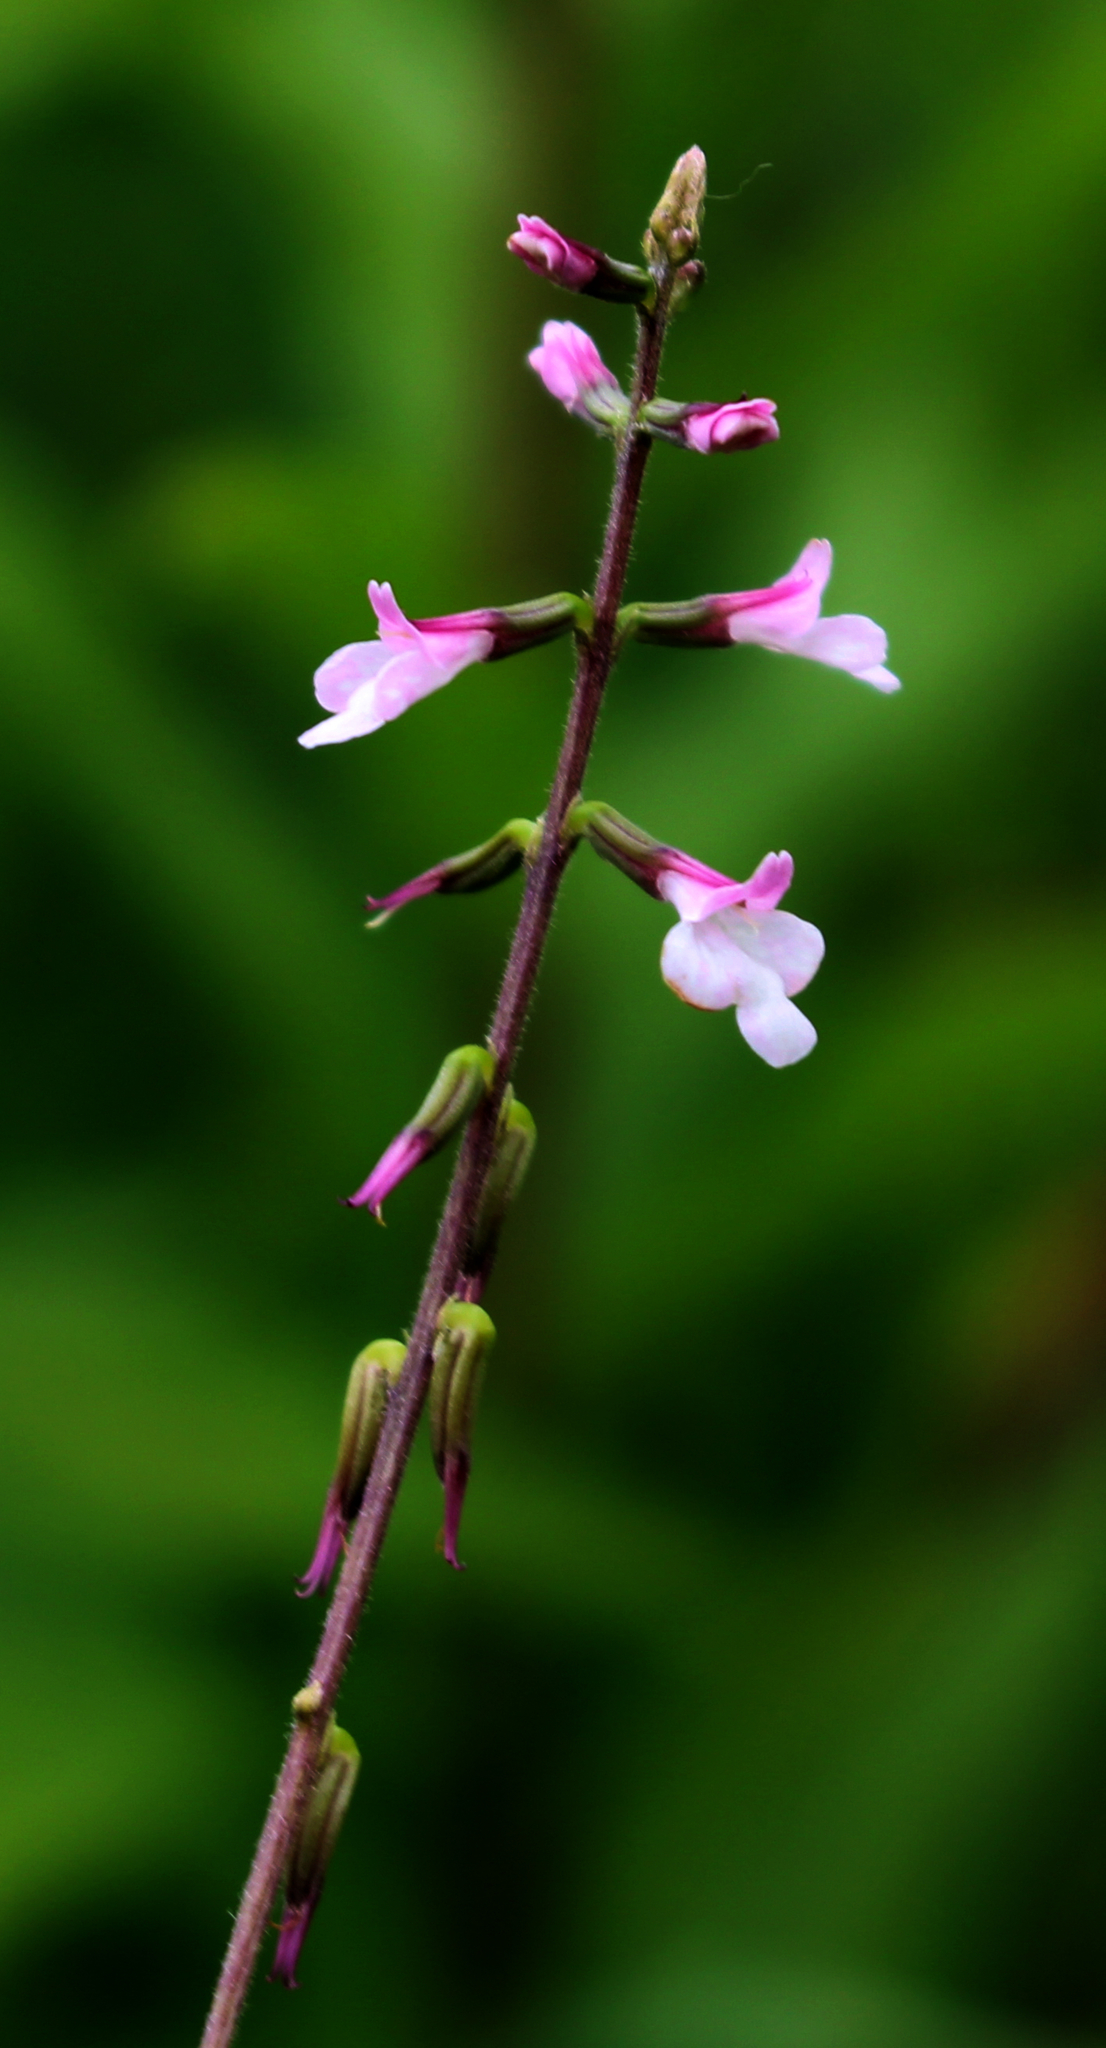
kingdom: Plantae
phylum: Tracheophyta
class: Magnoliopsida
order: Lamiales
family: Phrymaceae
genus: Phryma
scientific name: Phryma leptostachya
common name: American lopseed
